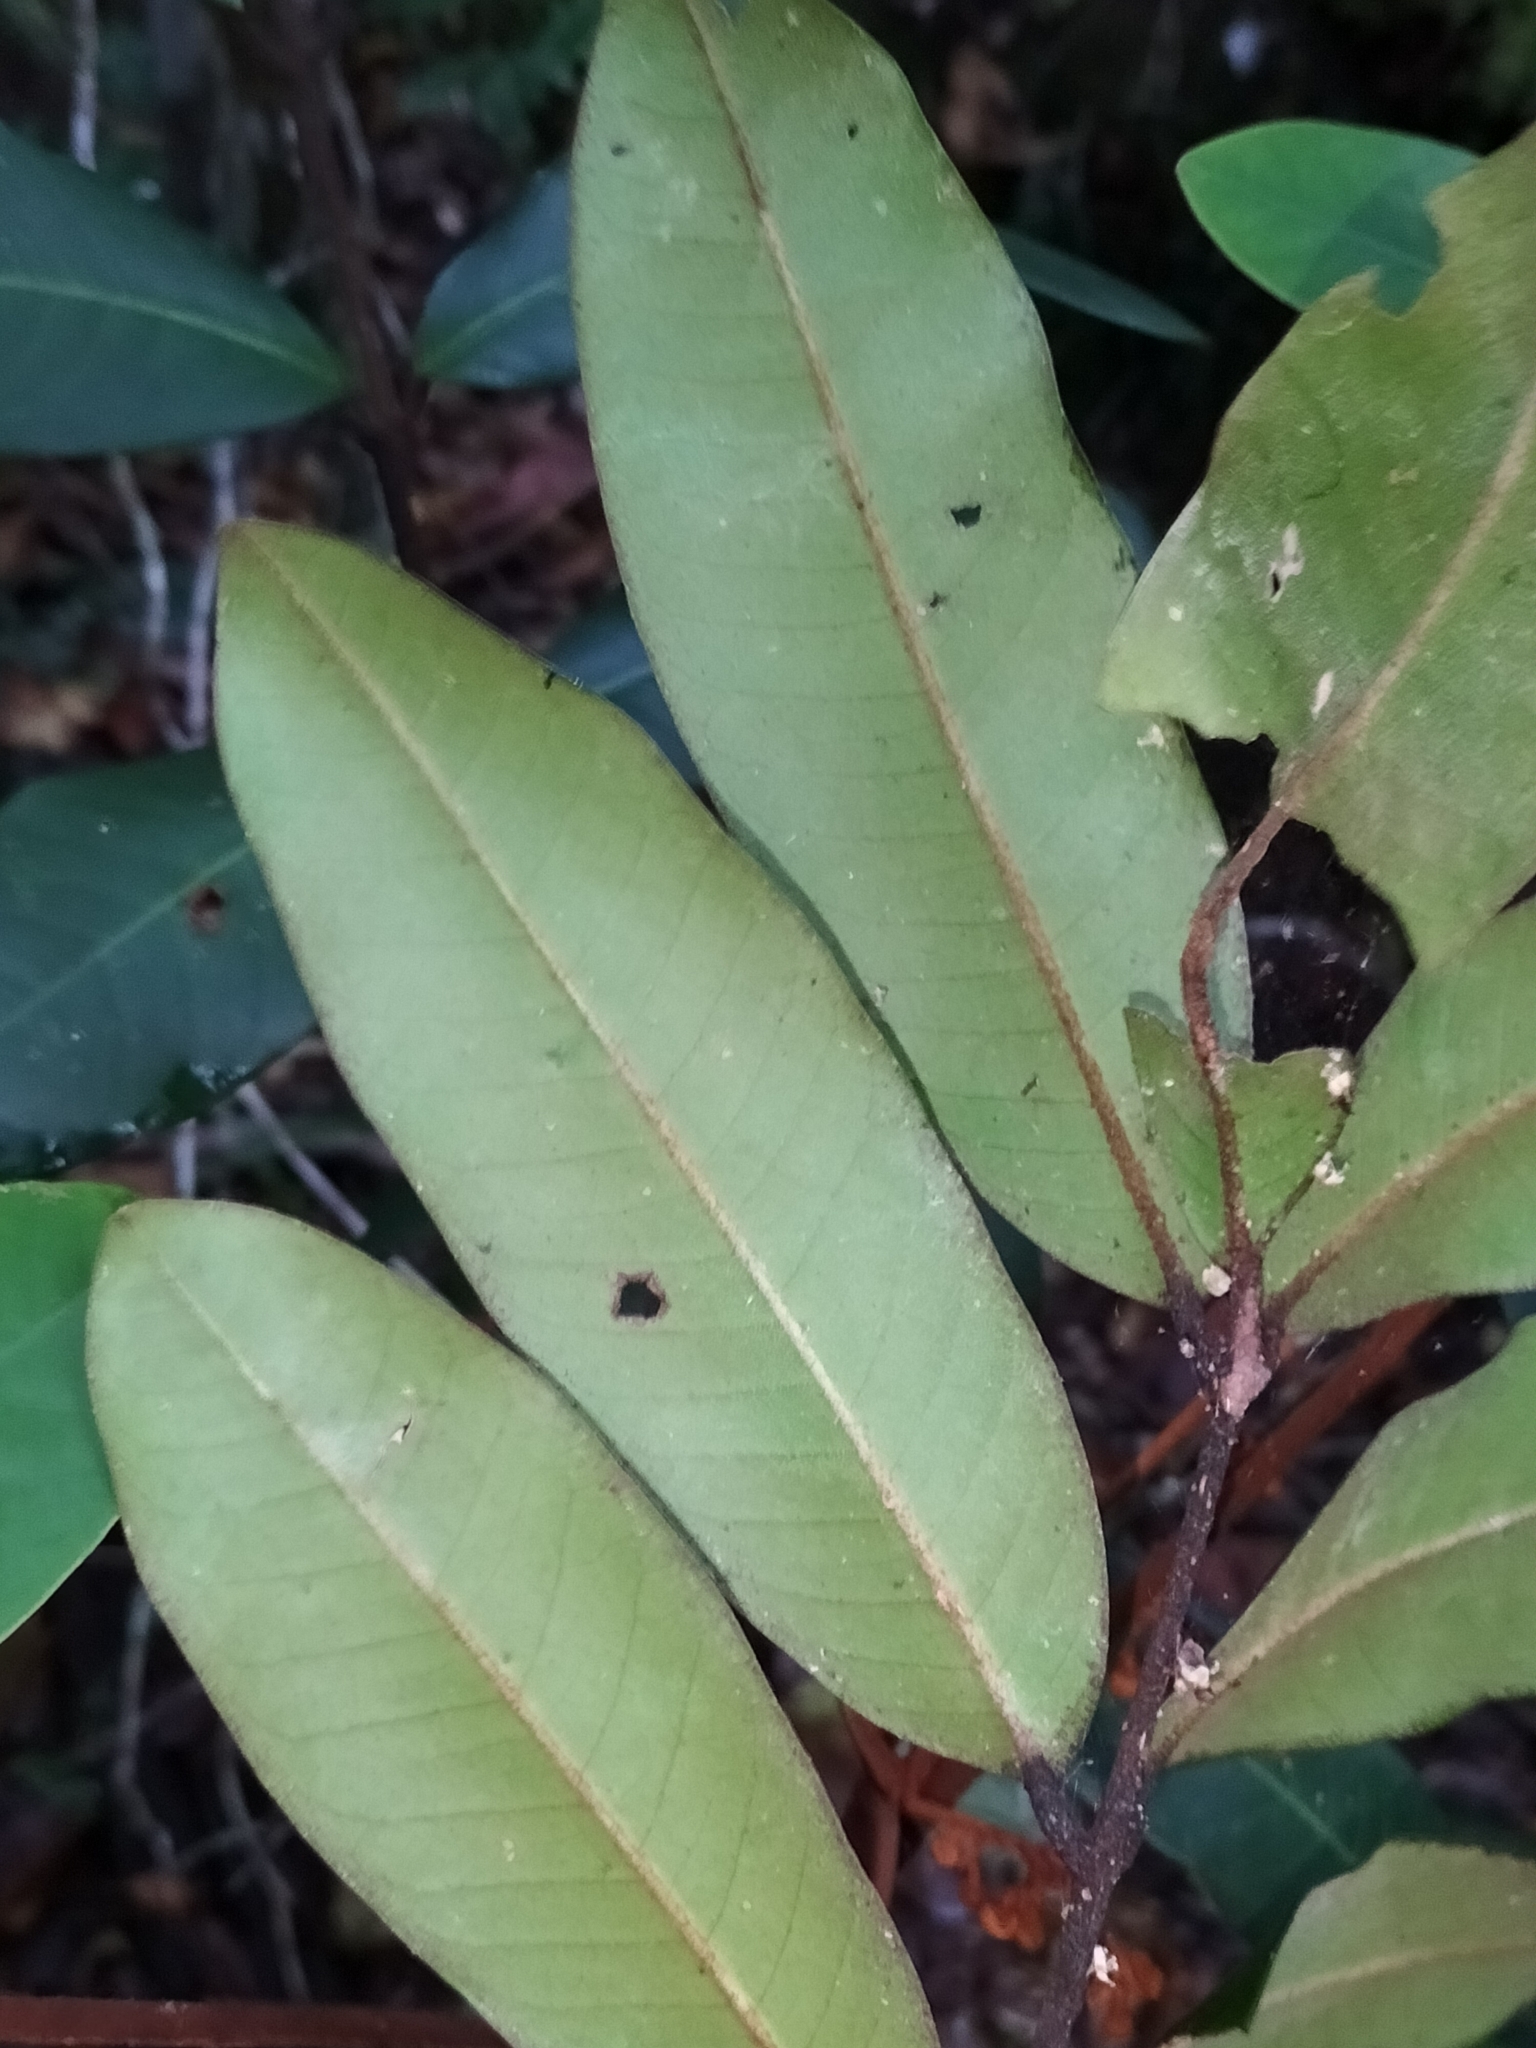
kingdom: Plantae
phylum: Tracheophyta
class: Magnoliopsida
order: Sapindales
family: Meliaceae
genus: Aglaia
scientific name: Aglaia meridionalis
